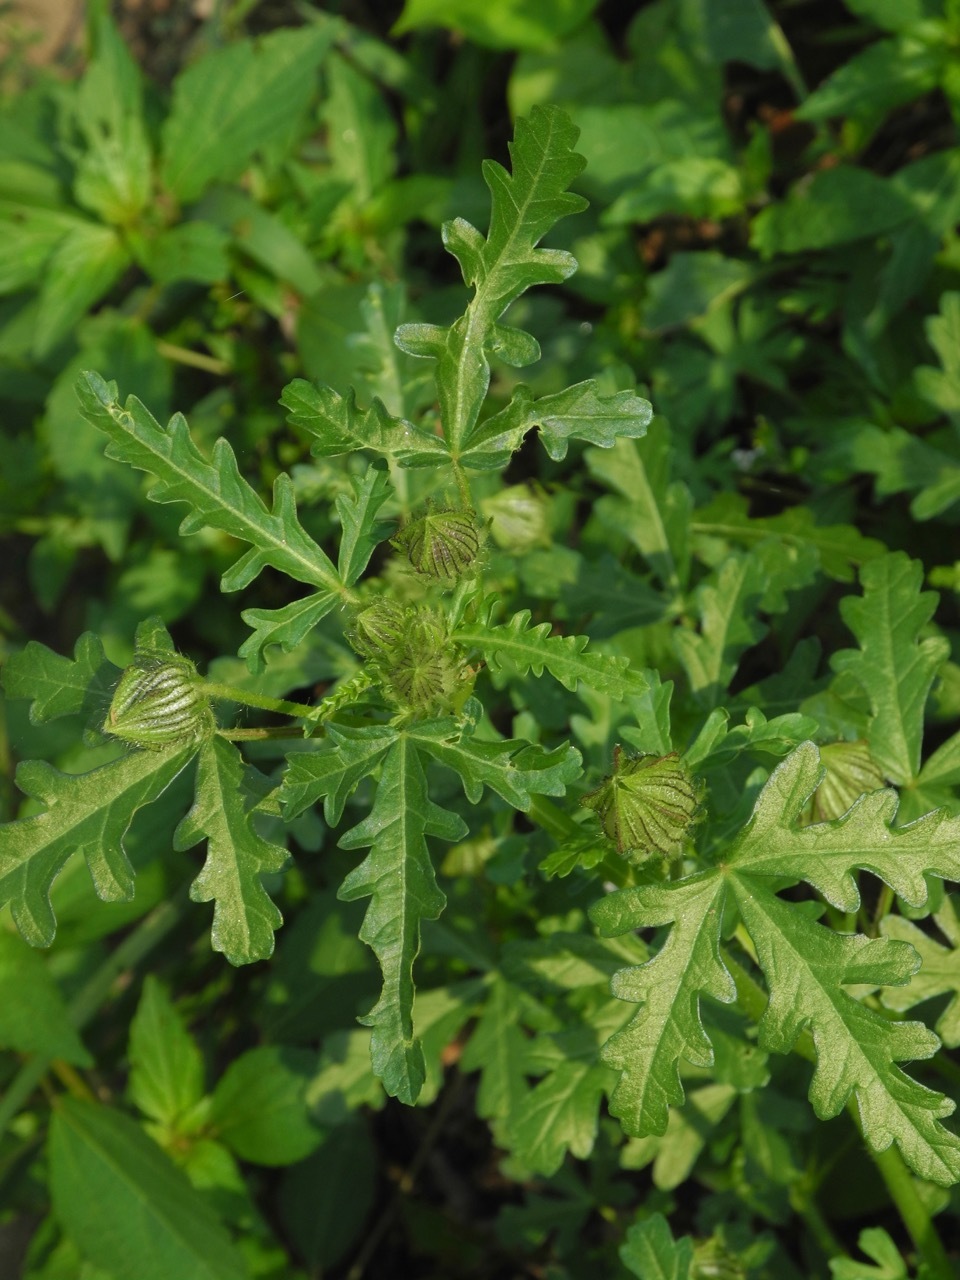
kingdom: Plantae
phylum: Tracheophyta
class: Magnoliopsida
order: Malvales
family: Malvaceae
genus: Hibiscus
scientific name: Hibiscus trionum
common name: Bladder ketmia
